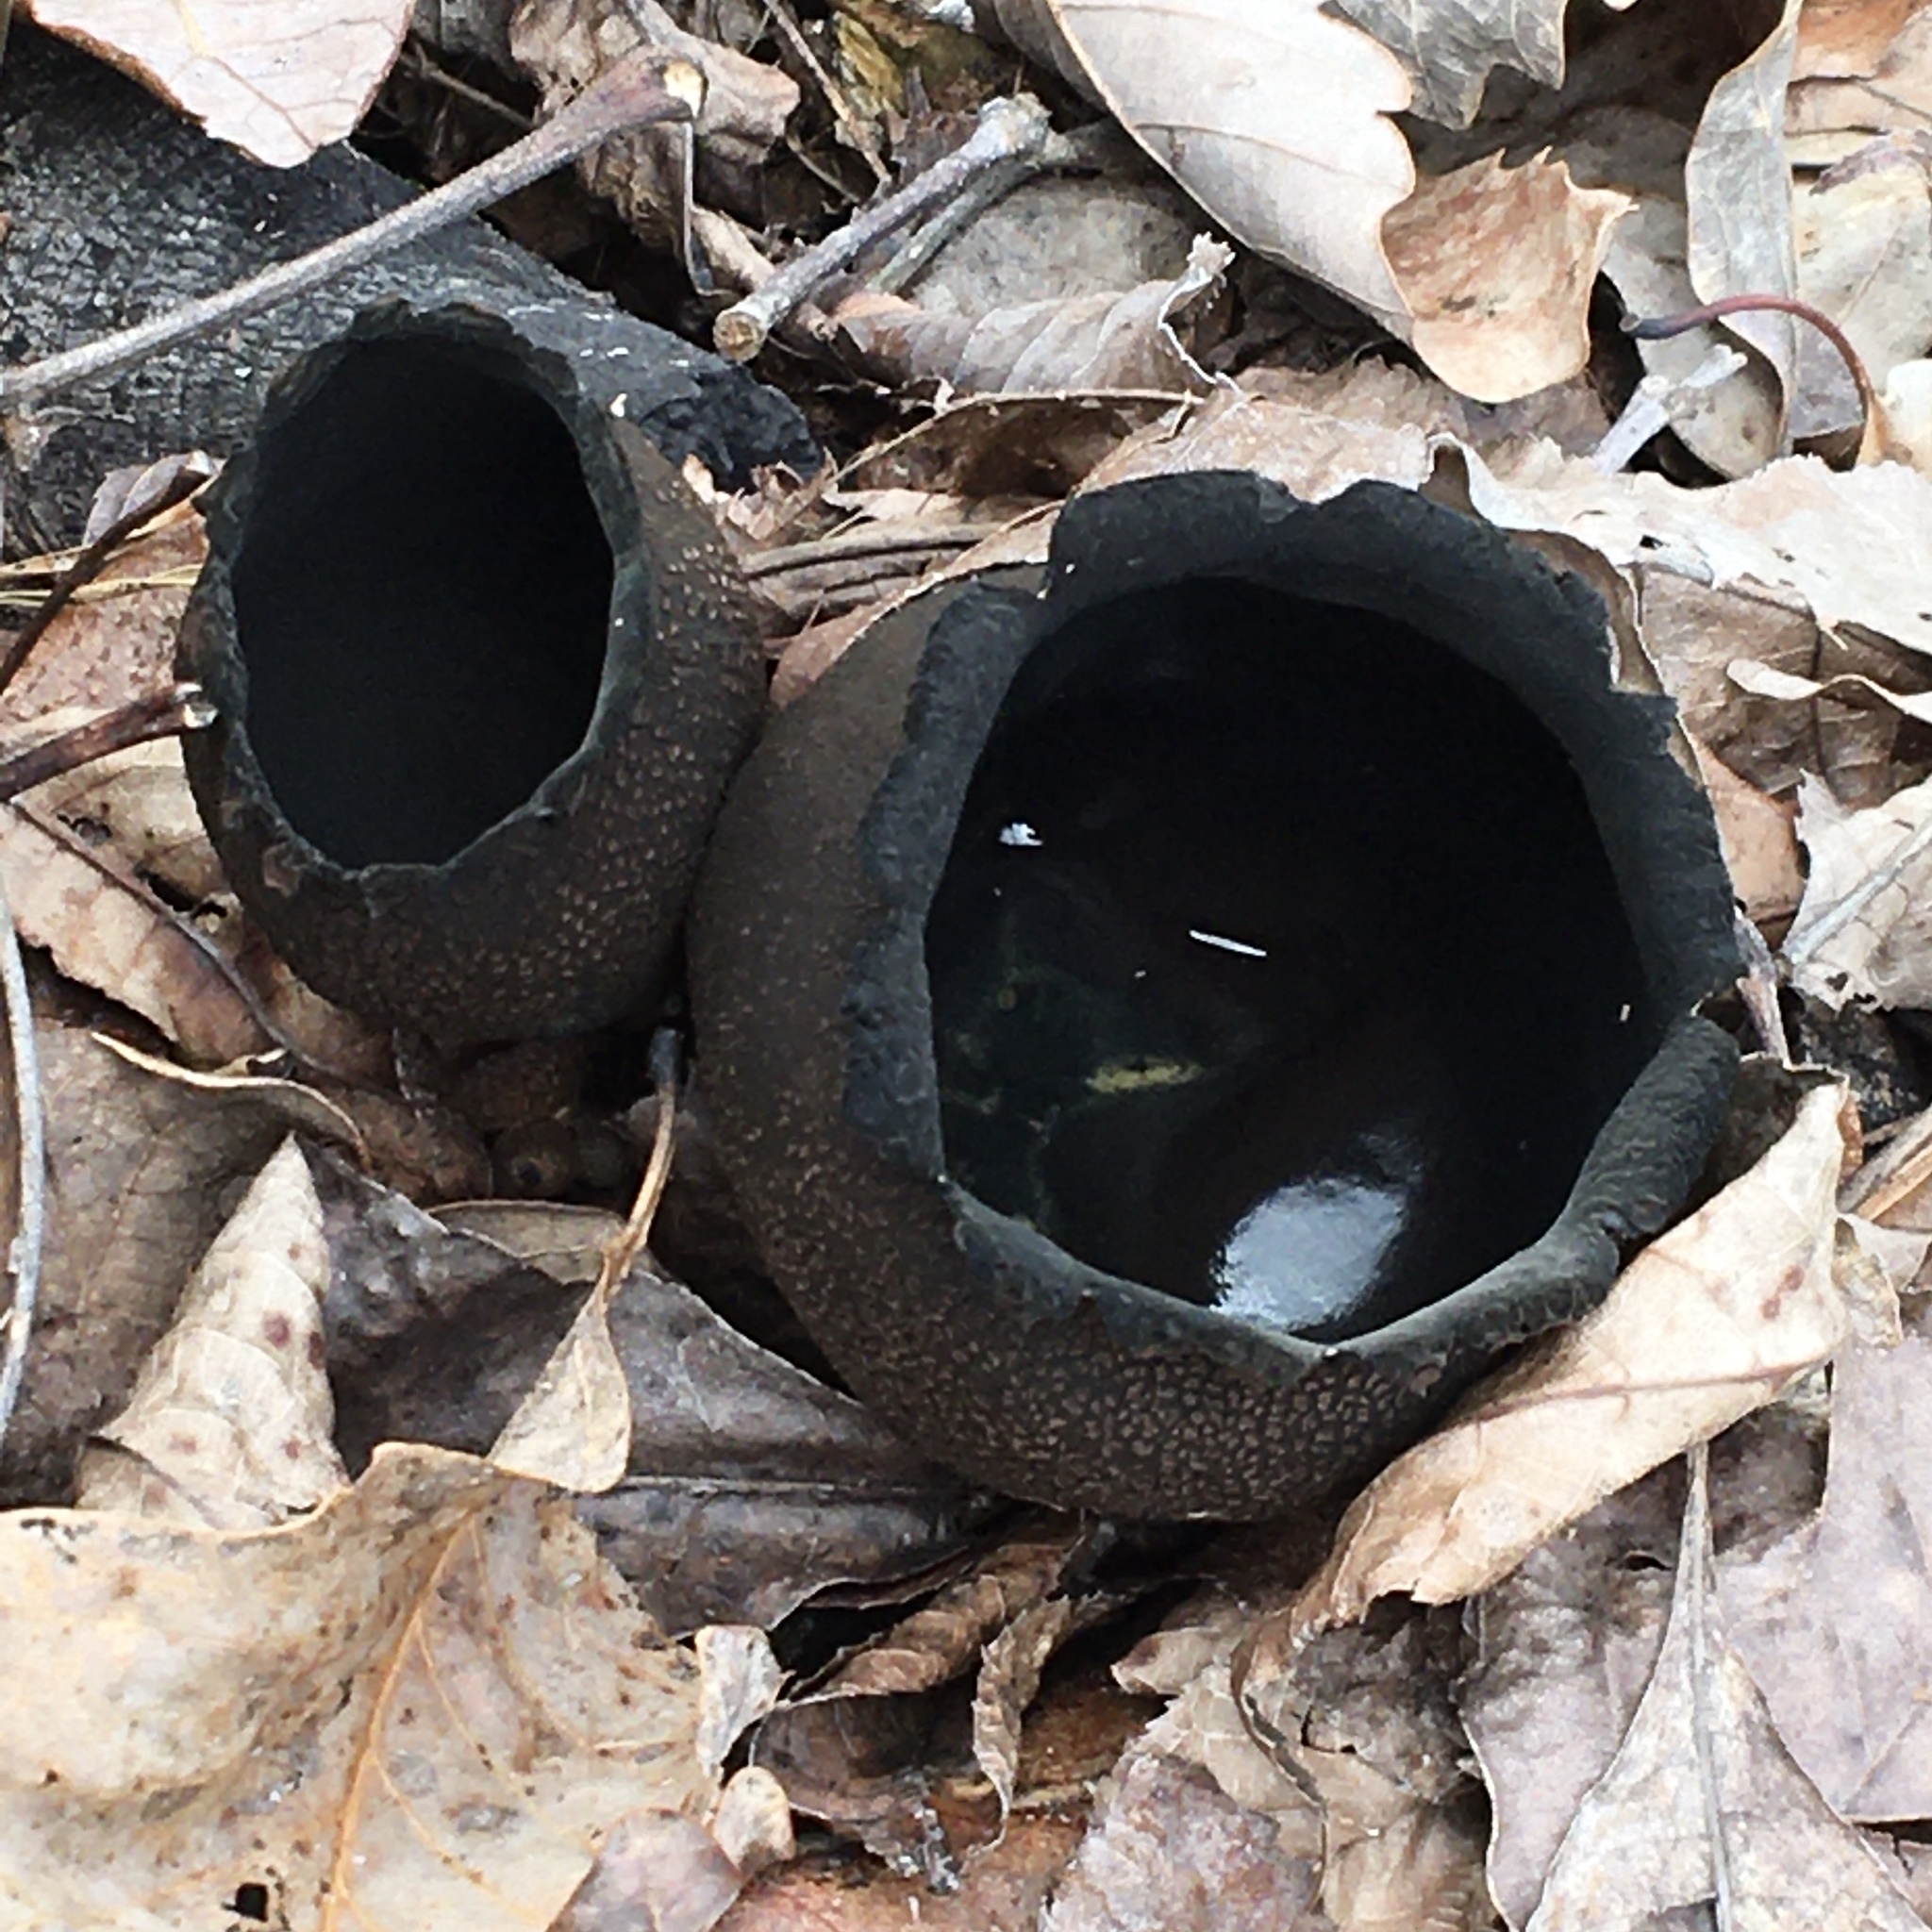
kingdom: Fungi
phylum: Ascomycota
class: Pezizomycetes
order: Pezizales
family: Sarcosomataceae
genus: Urnula
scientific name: Urnula craterium
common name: Devil's urn
